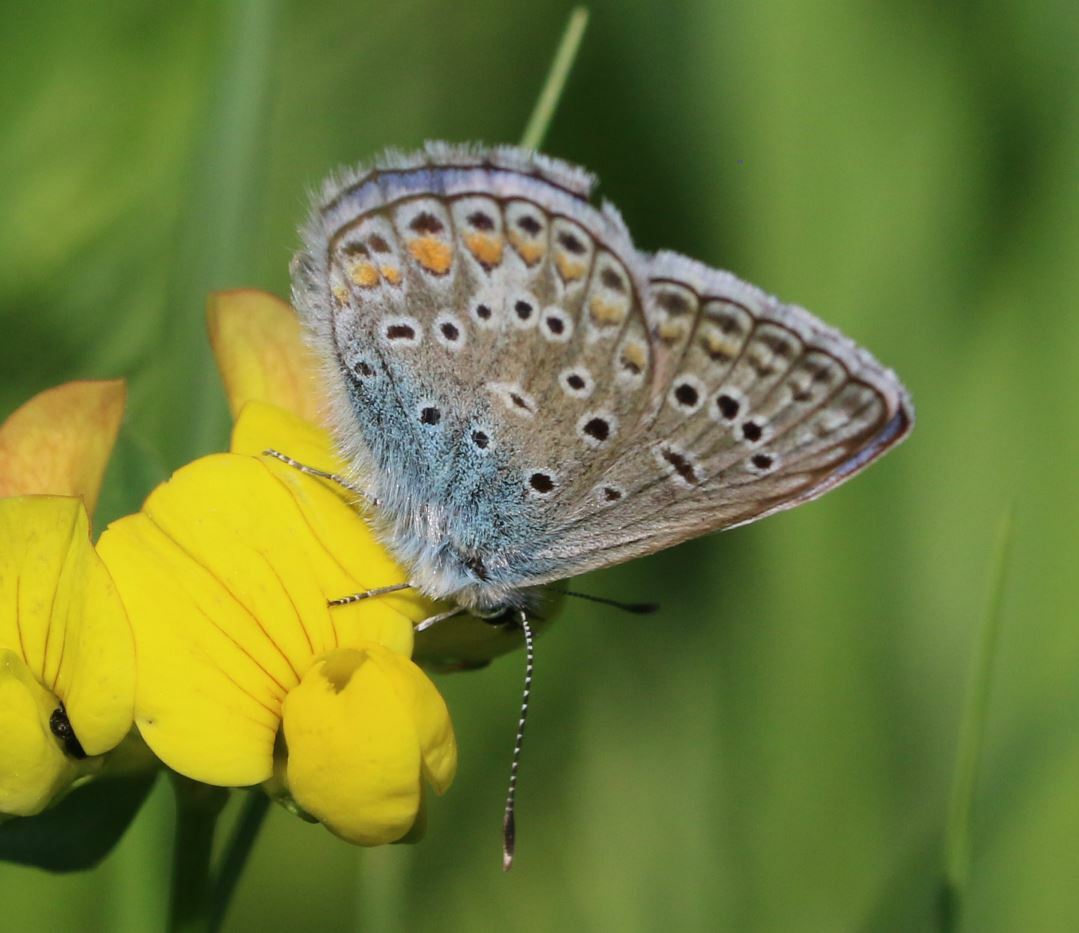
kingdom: Animalia
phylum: Arthropoda
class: Insecta
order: Lepidoptera
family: Lycaenidae
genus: Polyommatus
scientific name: Polyommatus icarus
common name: Common blue
